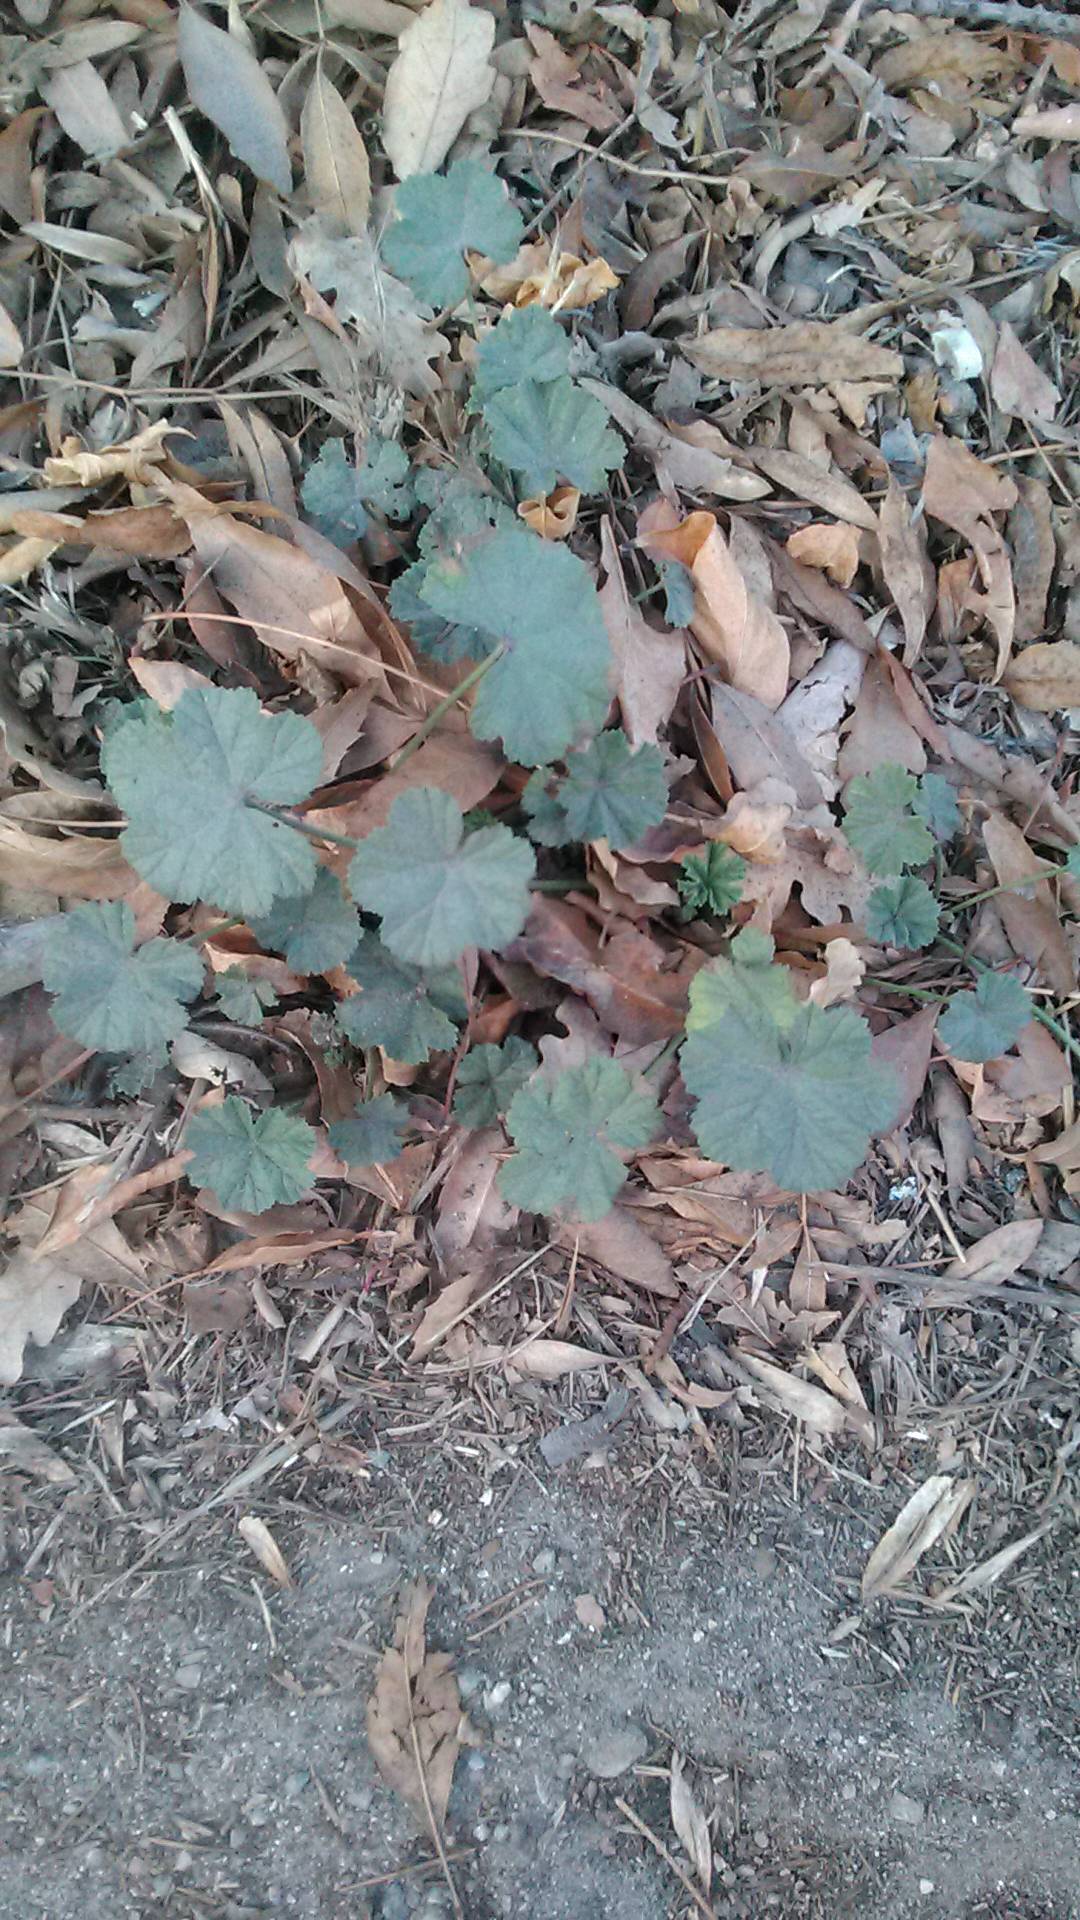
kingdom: Plantae
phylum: Tracheophyta
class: Magnoliopsida
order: Malvales
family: Malvaceae
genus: Malva
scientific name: Malva neglecta
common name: Common mallow
